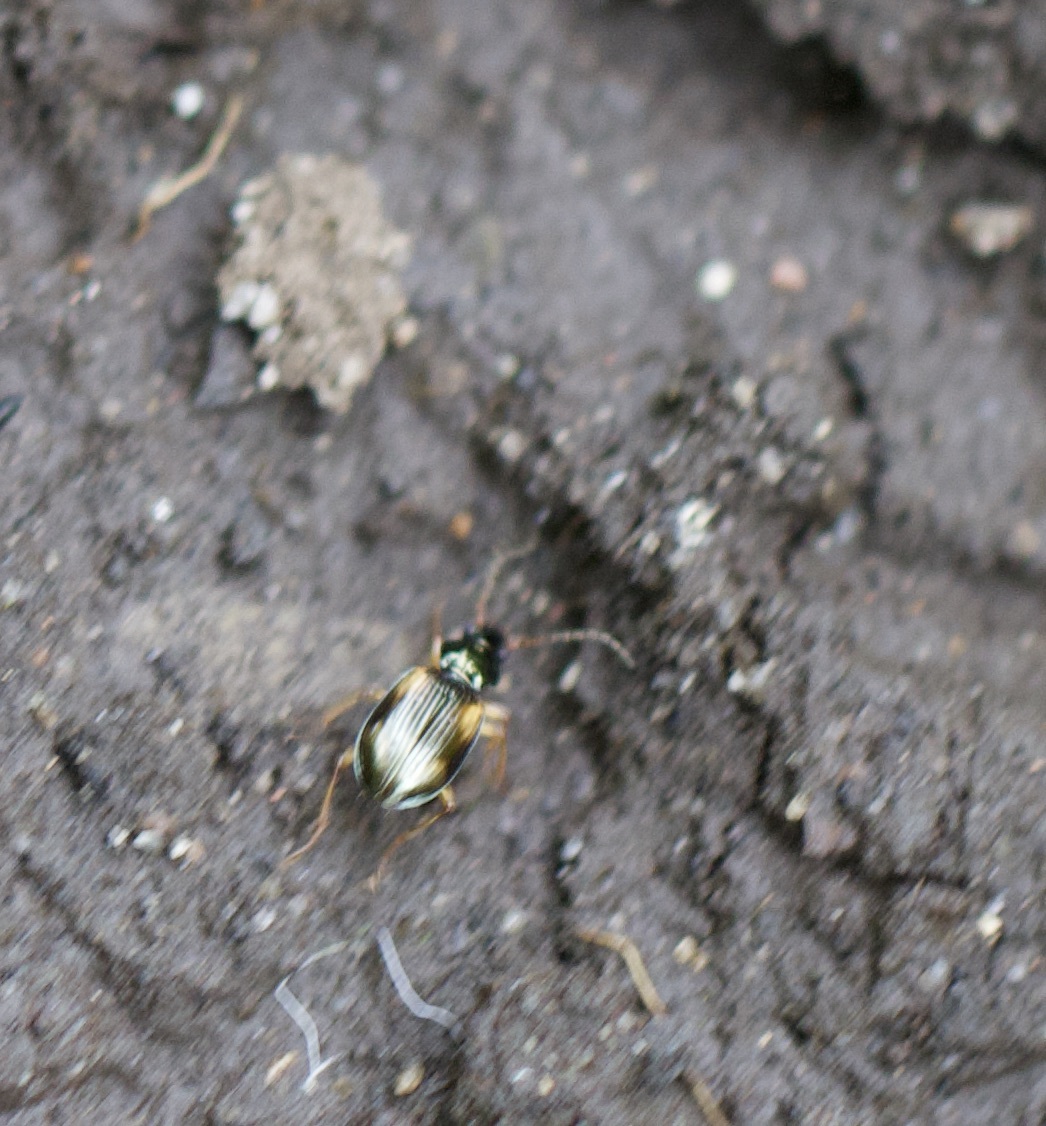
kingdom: Animalia
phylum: Arthropoda
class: Insecta
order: Coleoptera
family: Carabidae
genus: Bembidion
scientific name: Bembidion tetracolum
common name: Seine riverbank ground beetle
